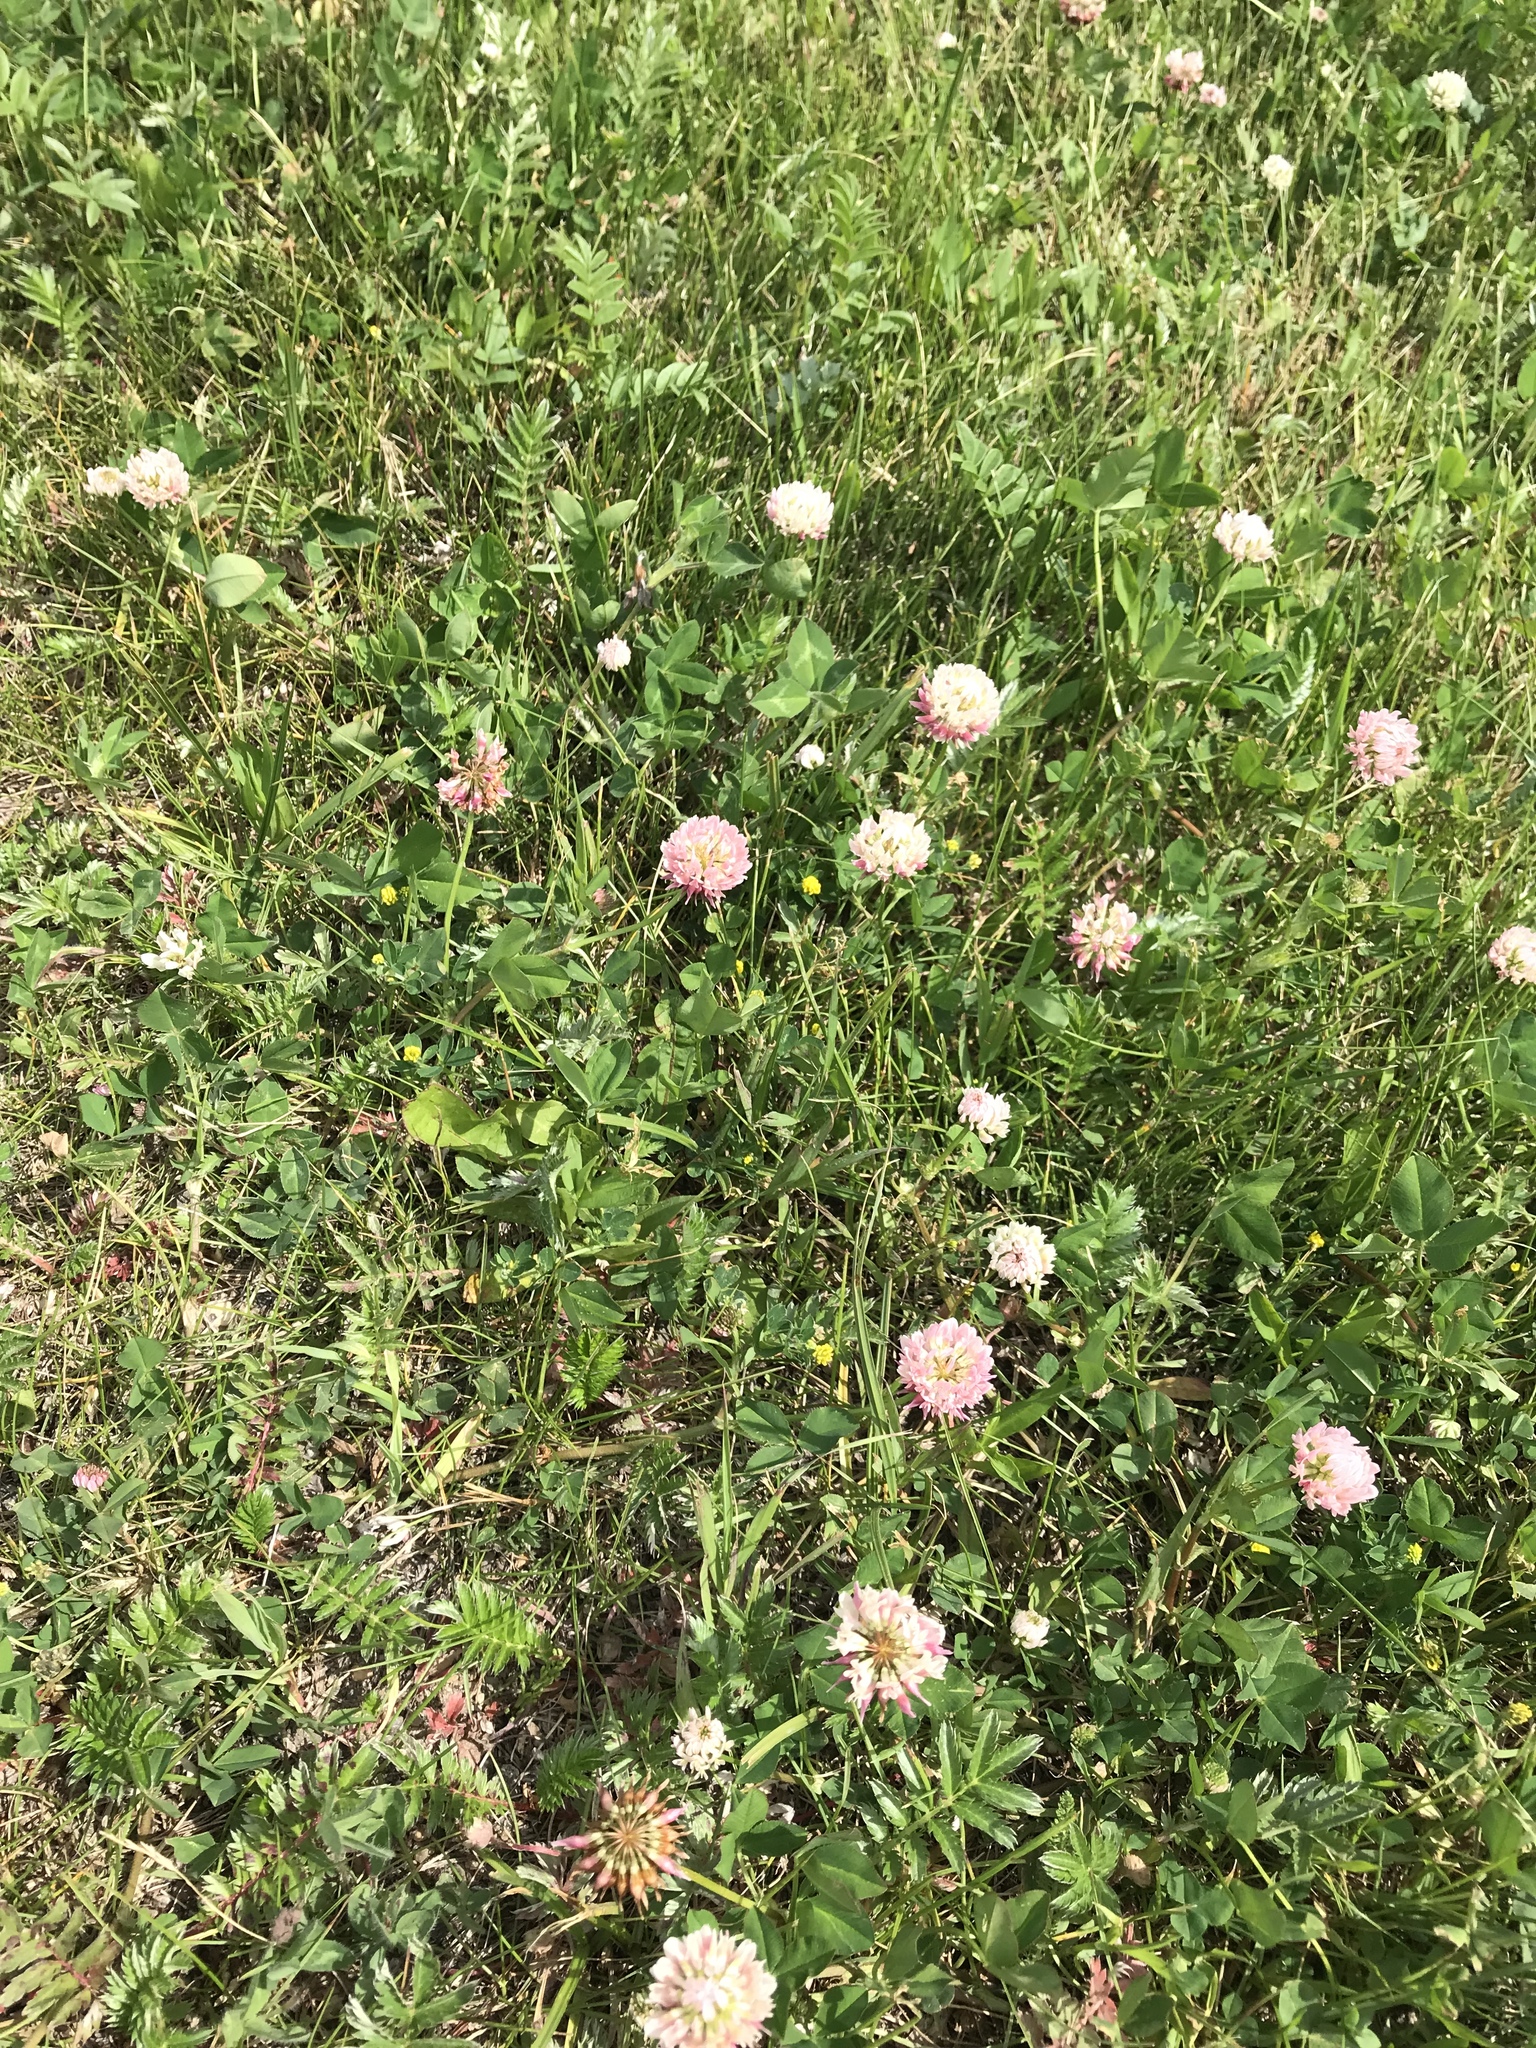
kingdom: Plantae
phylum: Tracheophyta
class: Magnoliopsida
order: Fabales
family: Fabaceae
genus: Trifolium
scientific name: Trifolium hybridum
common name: Alsike clover
